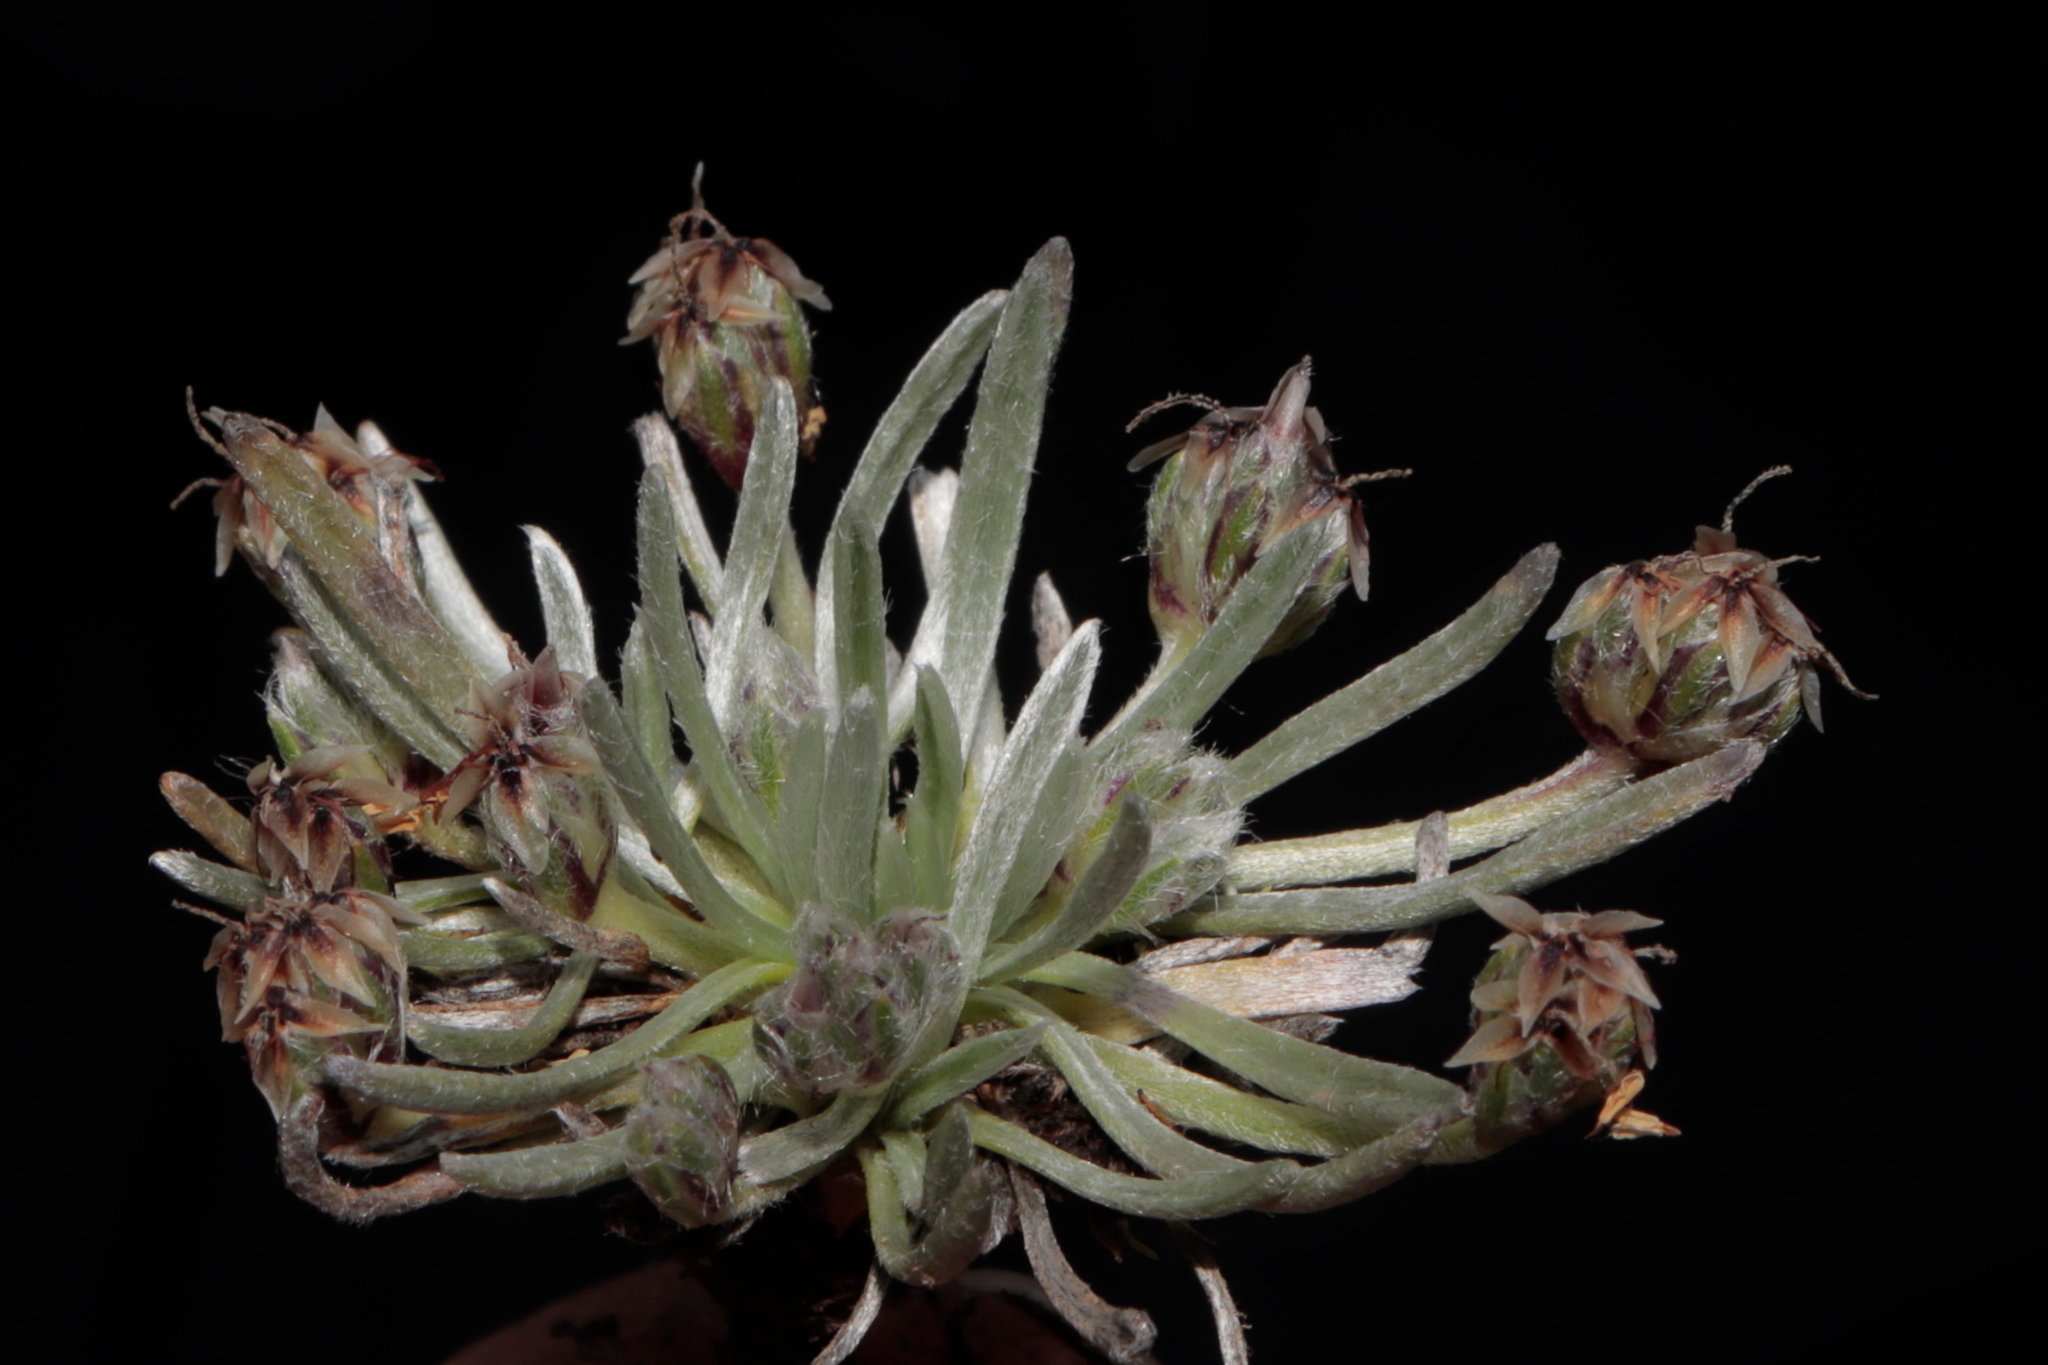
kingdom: Plantae
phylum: Tracheophyta
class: Magnoliopsida
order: Lamiales
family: Plantaginaceae
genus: Plantago
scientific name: Plantago lamprophylla
